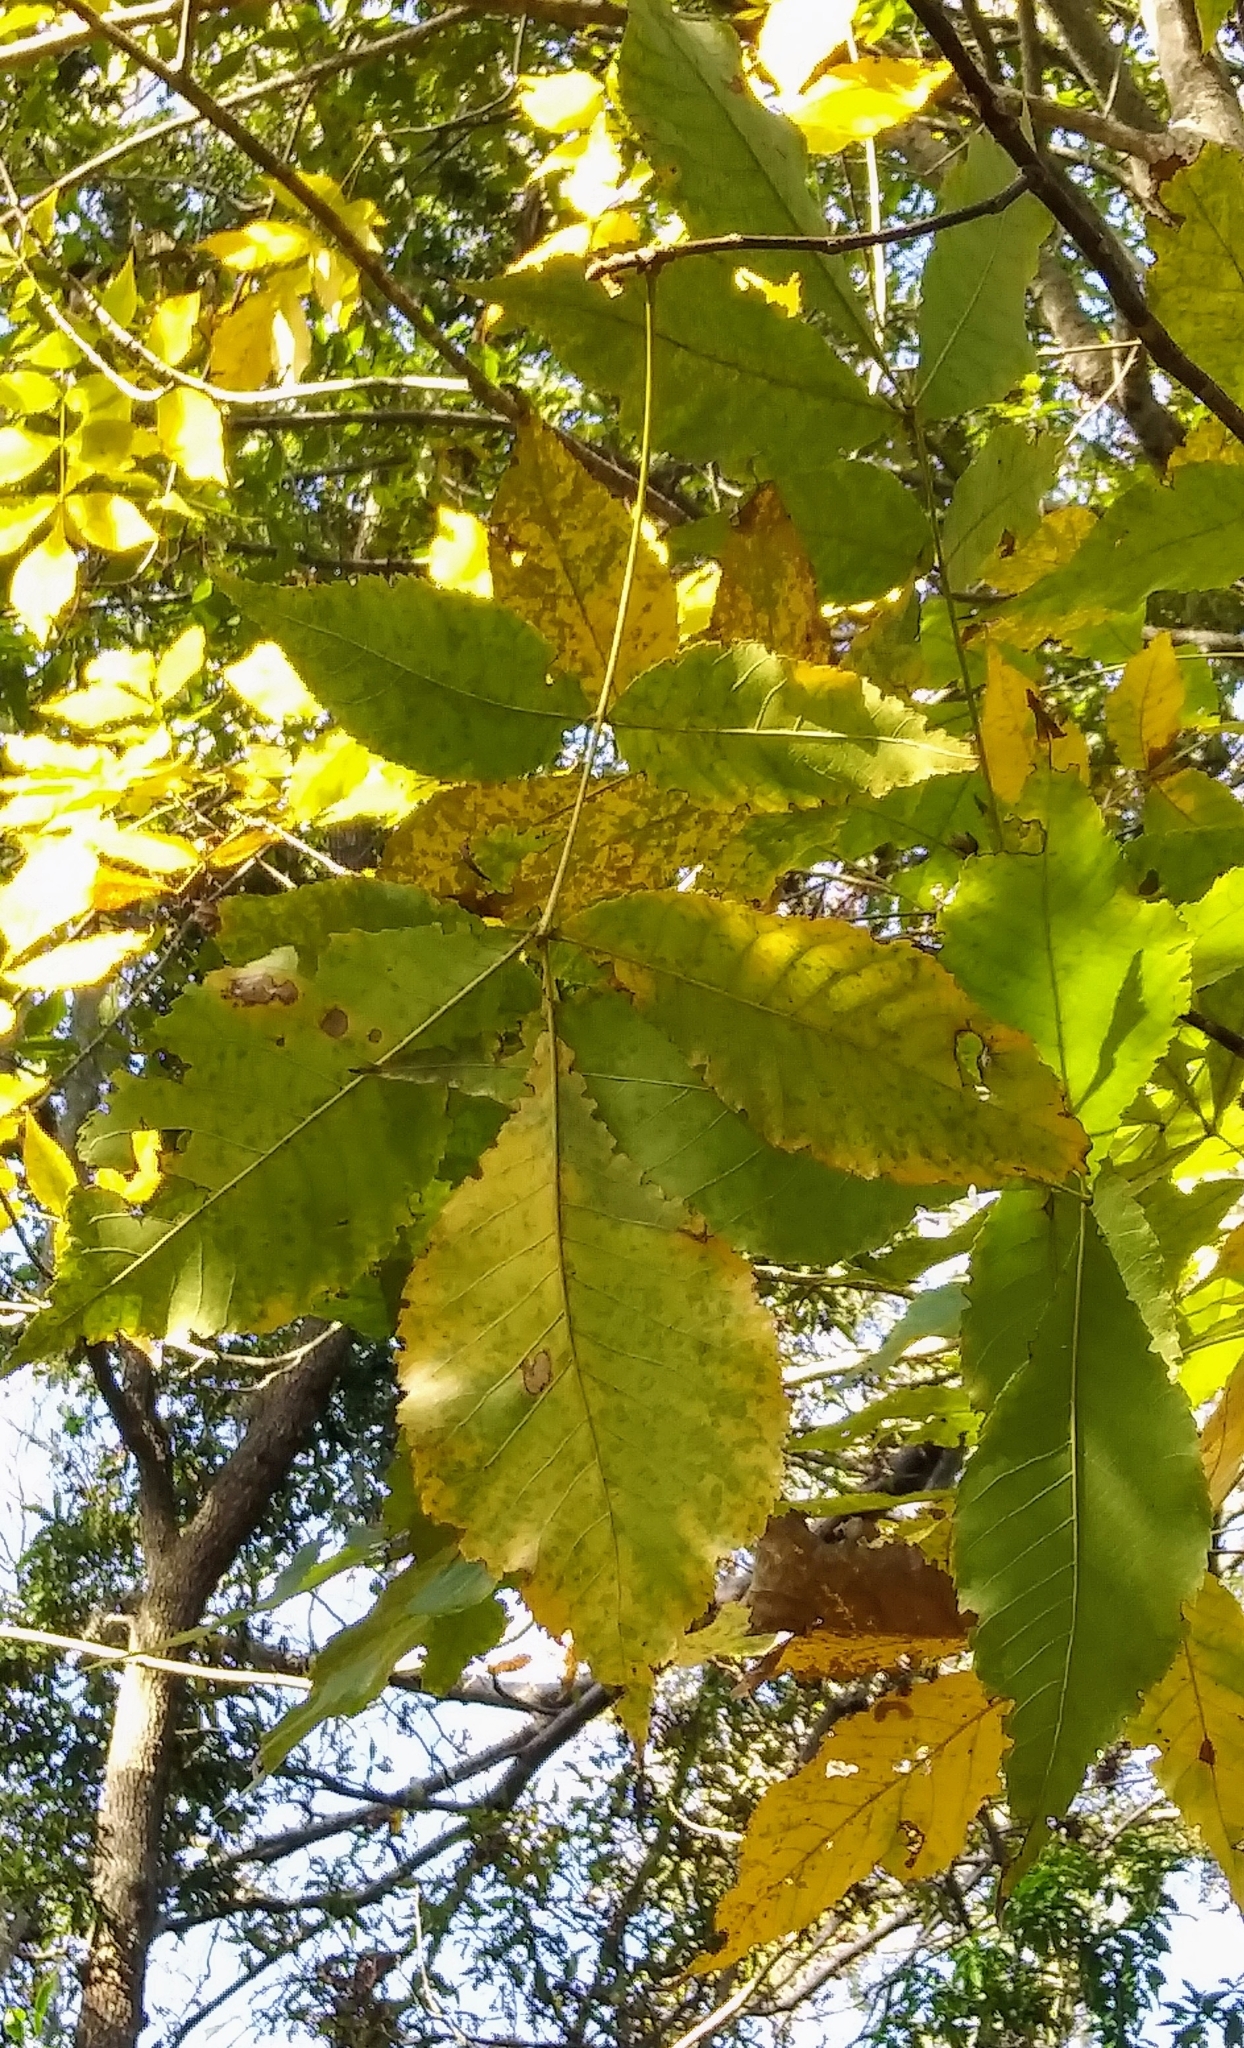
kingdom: Plantae
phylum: Tracheophyta
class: Magnoliopsida
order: Fagales
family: Juglandaceae
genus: Carya
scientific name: Carya glabra
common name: Pignut hickory
